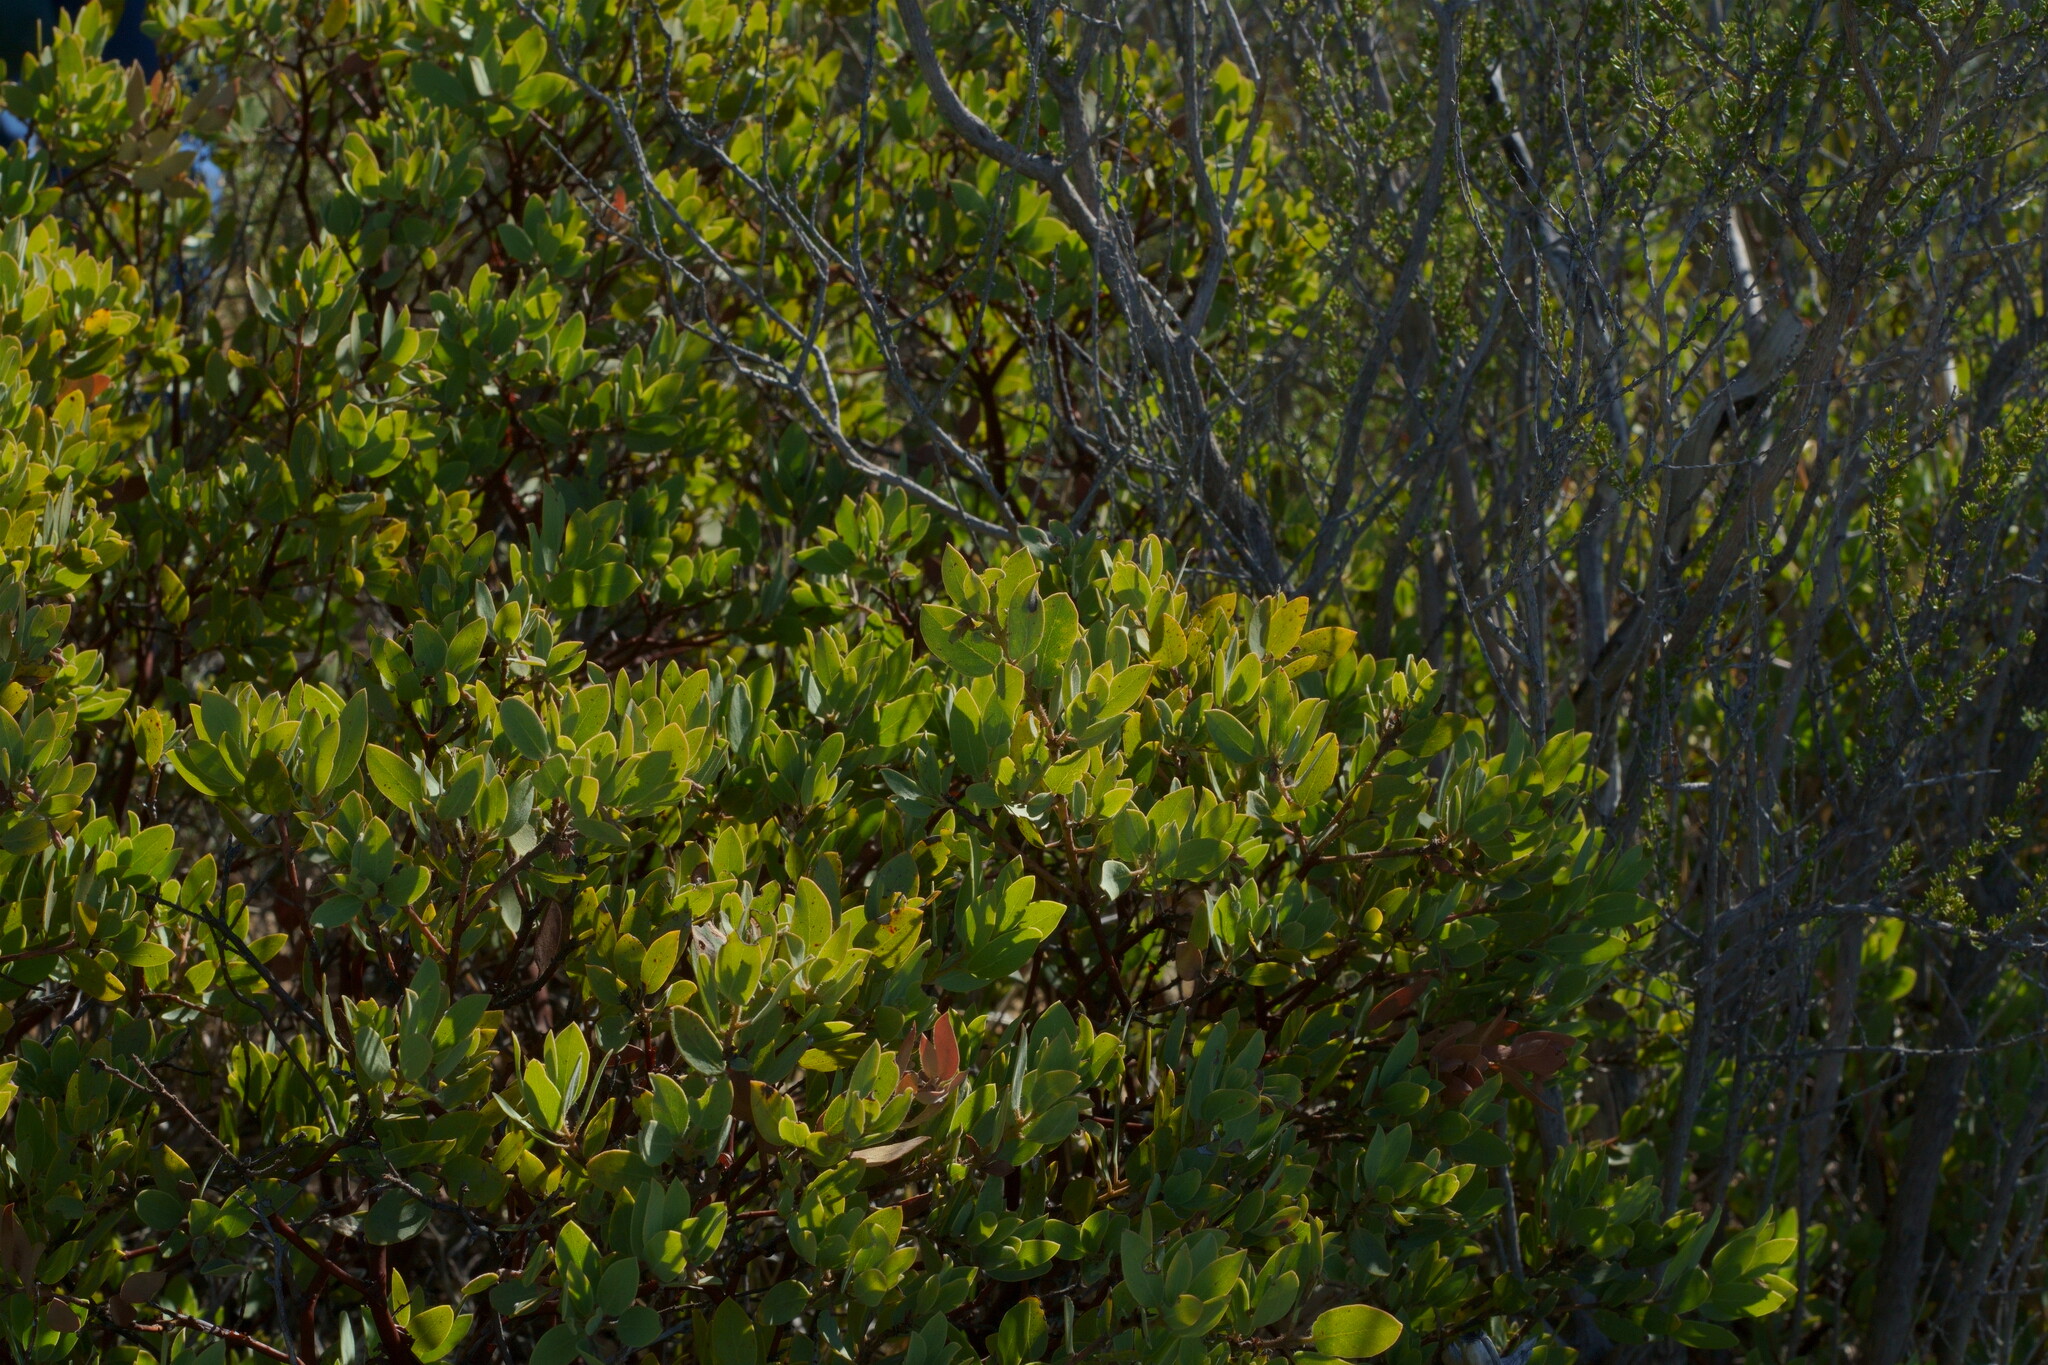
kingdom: Plantae
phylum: Tracheophyta
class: Magnoliopsida
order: Ericales
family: Ericaceae
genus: Arctostaphylos
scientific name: Arctostaphylos glandulosa
